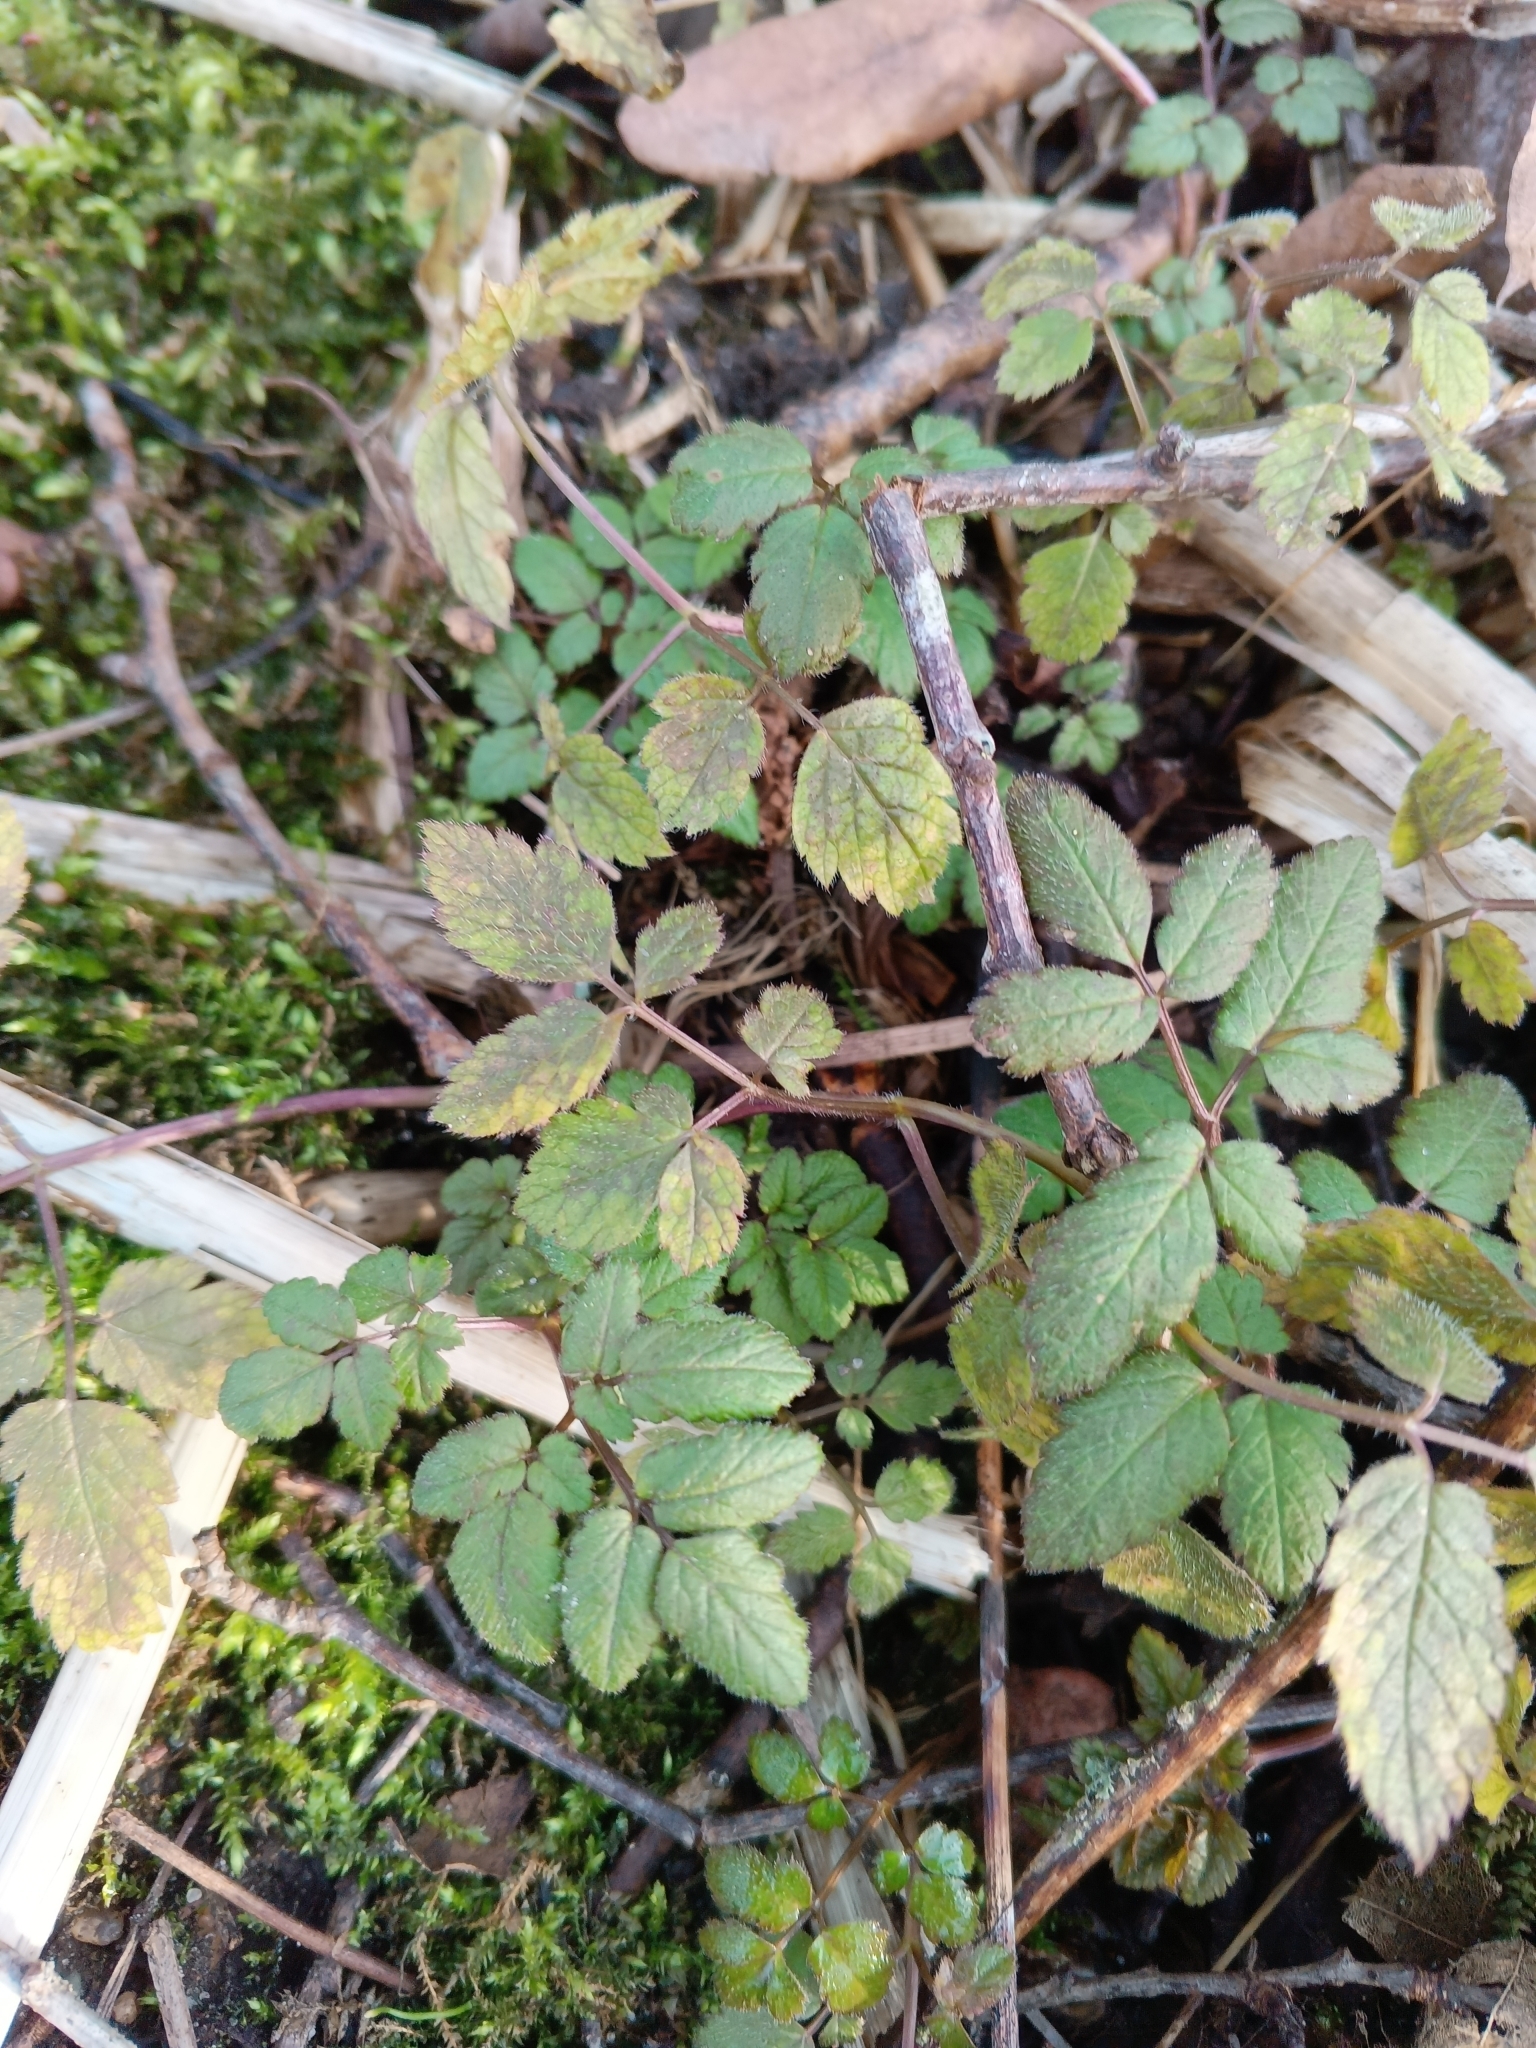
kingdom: Plantae
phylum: Tracheophyta
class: Magnoliopsida
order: Apiales
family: Apiaceae
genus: Chaerophyllum
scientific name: Chaerophyllum aromaticum
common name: Broadleaf chervil
